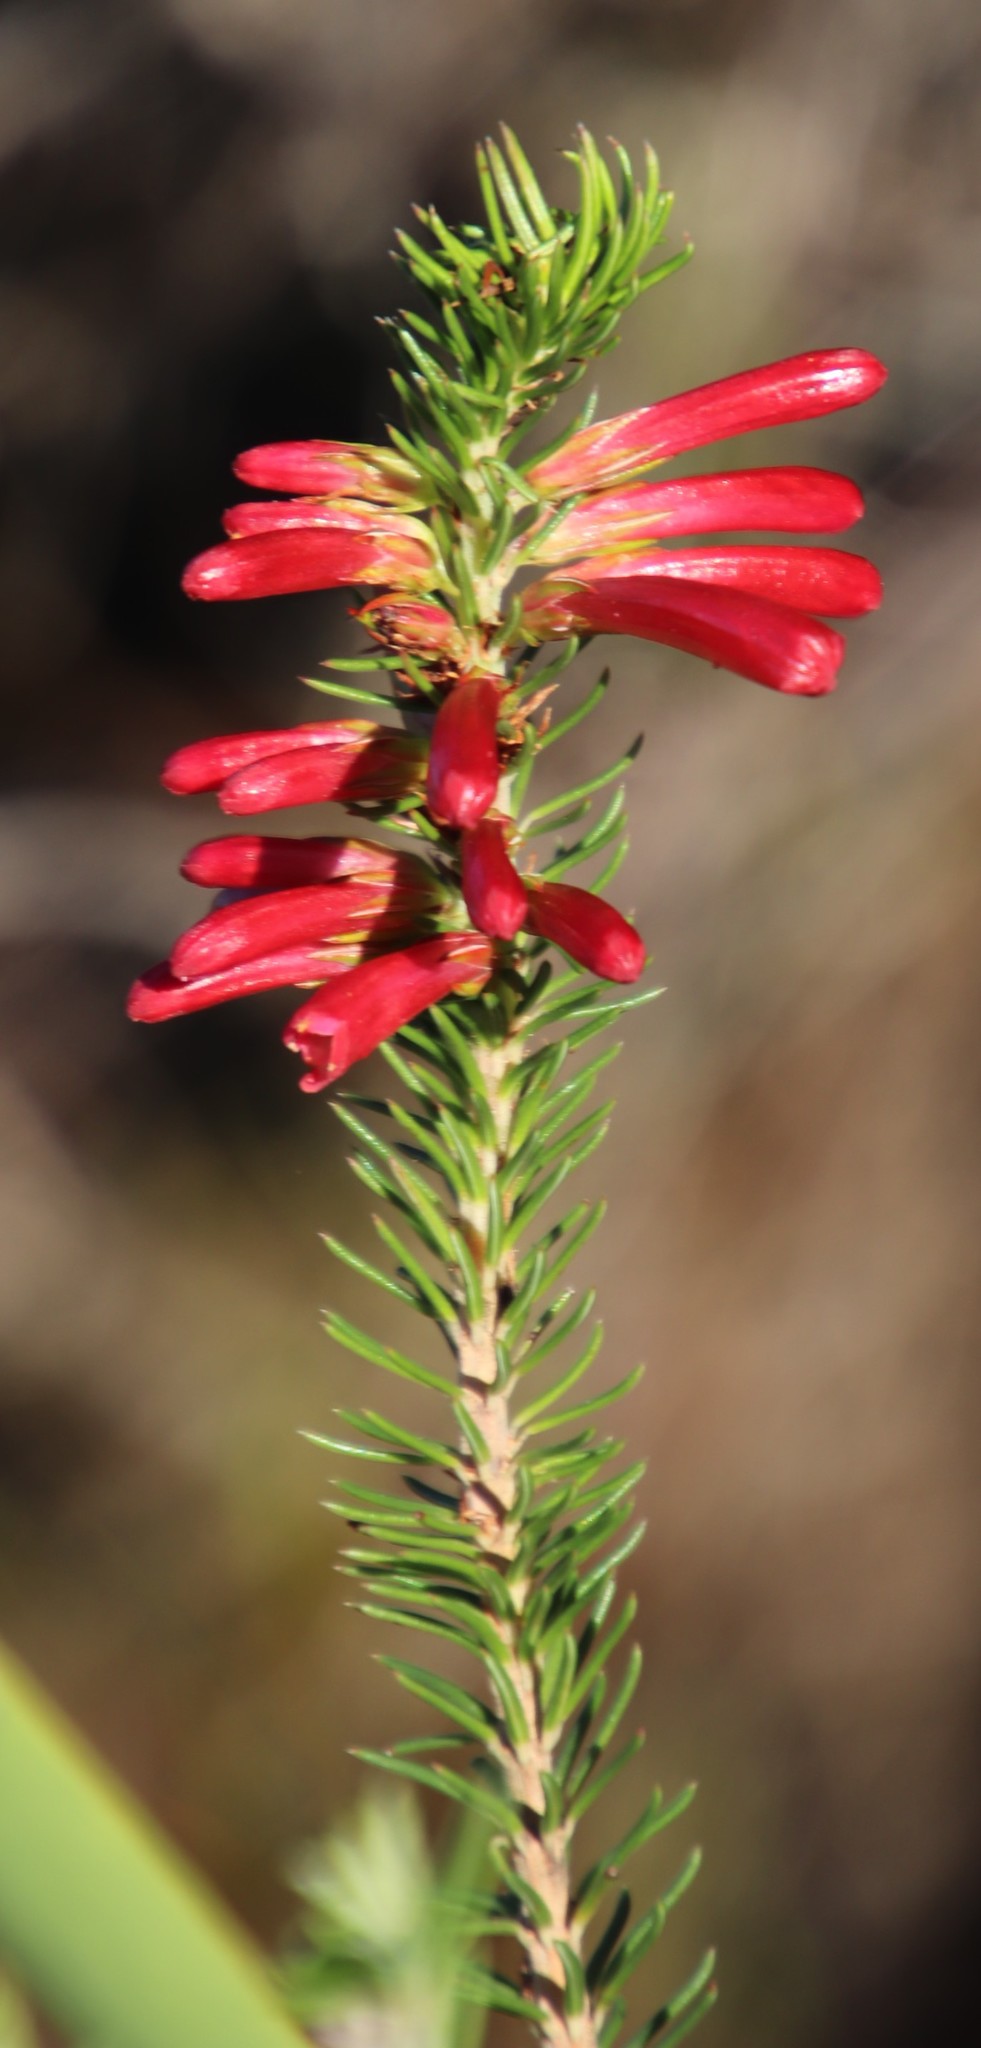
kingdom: Plantae
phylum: Tracheophyta
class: Magnoliopsida
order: Ericales
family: Ericaceae
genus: Erica
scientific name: Erica abietina
